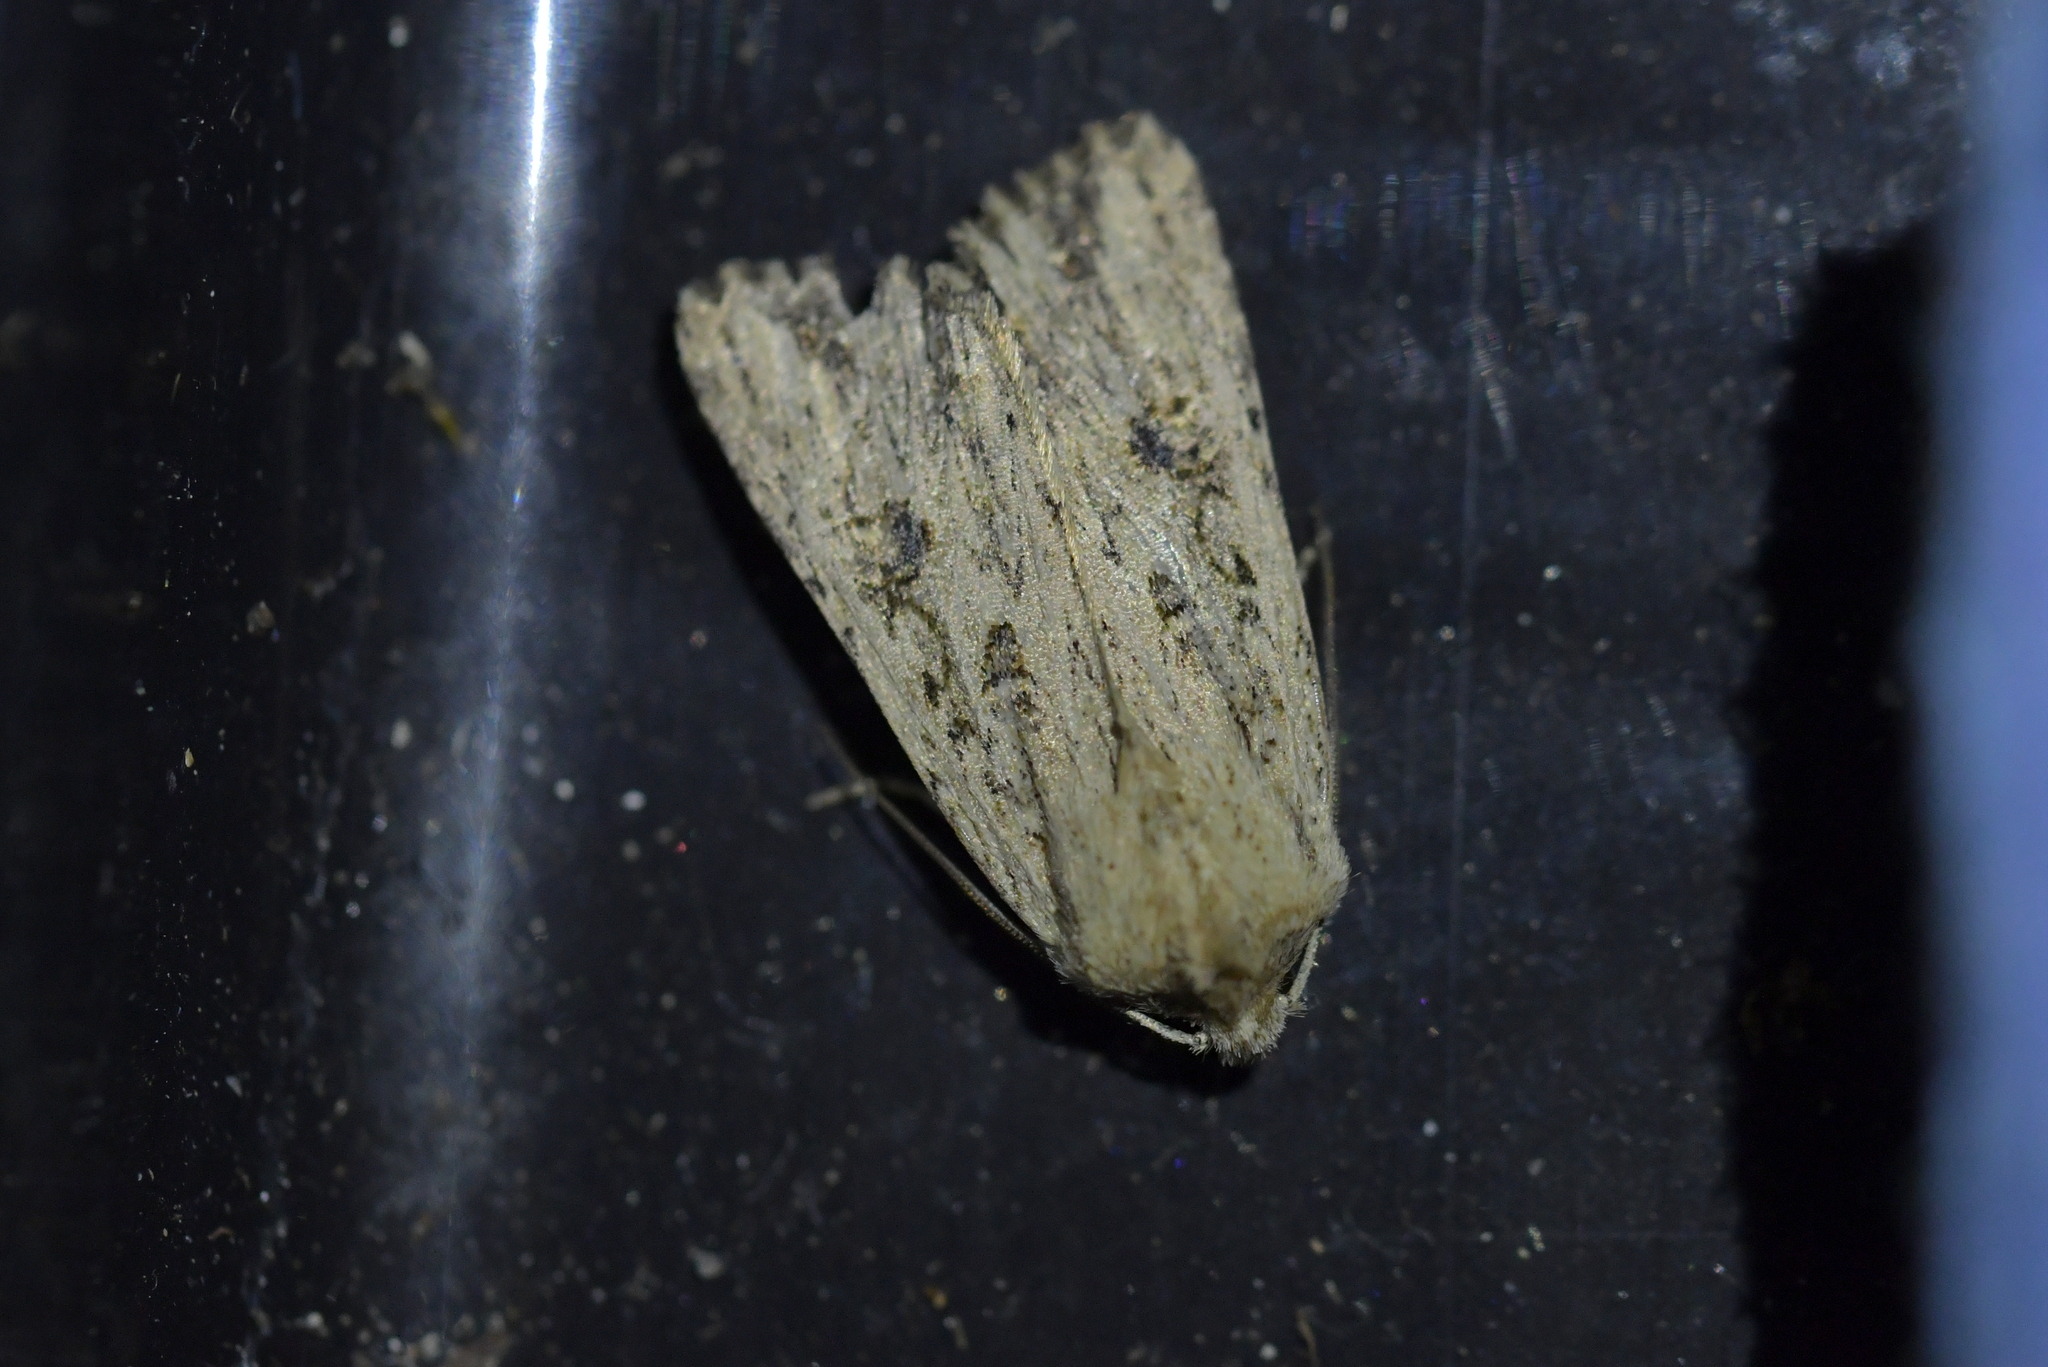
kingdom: Animalia
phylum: Arthropoda
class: Insecta
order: Lepidoptera
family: Noctuidae
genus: Ichneutica
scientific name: Ichneutica lignana
